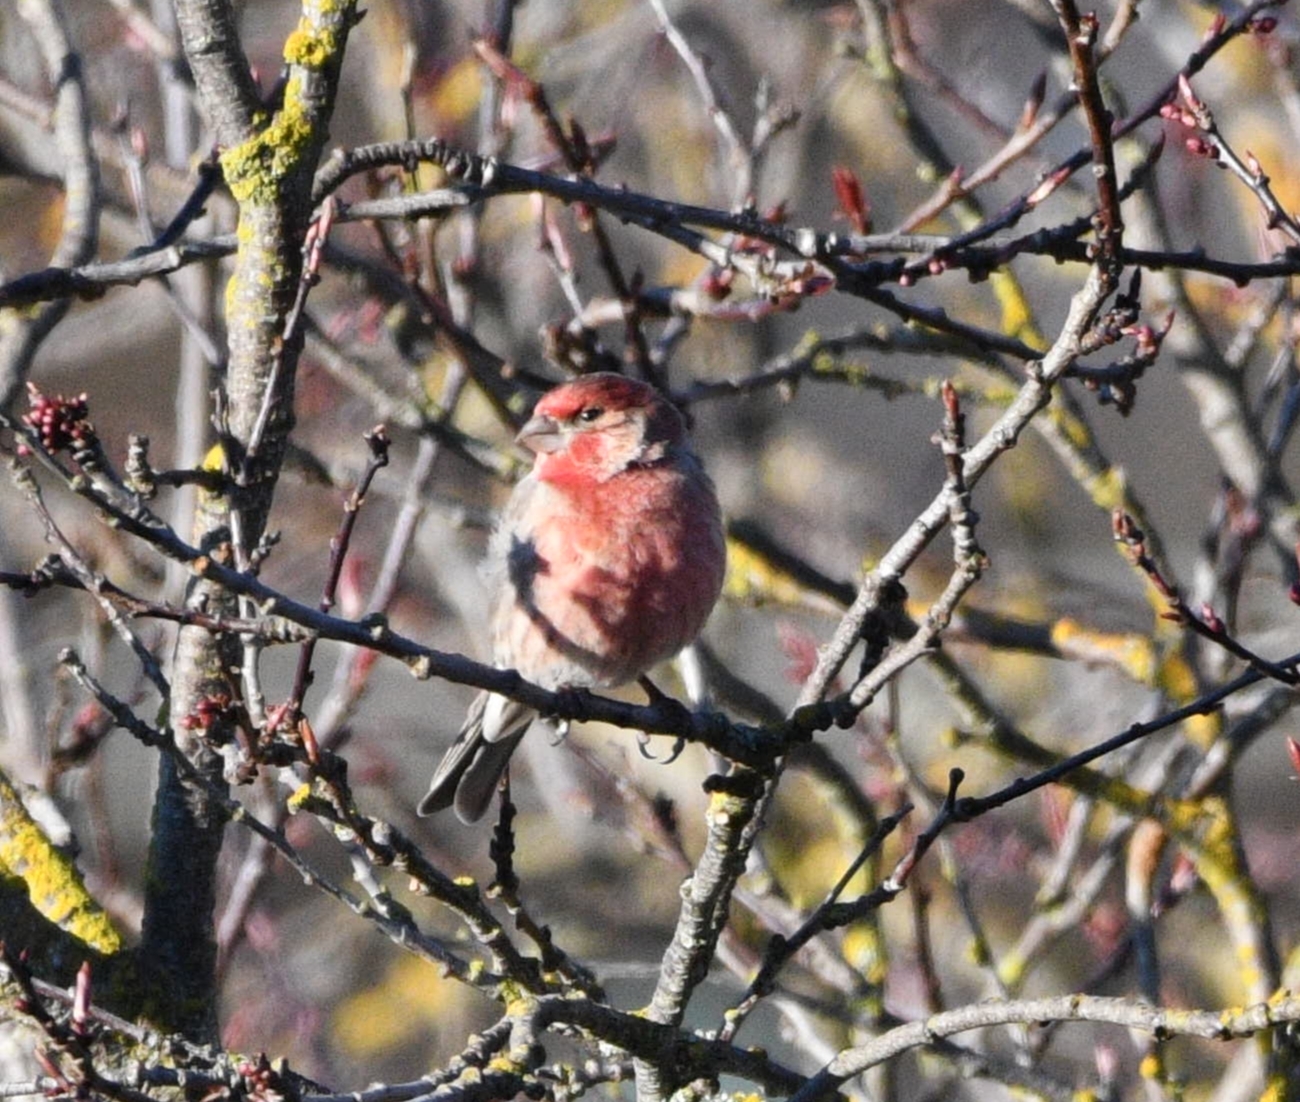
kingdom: Animalia
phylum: Chordata
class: Aves
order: Passeriformes
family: Fringillidae
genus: Haemorhous
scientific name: Haemorhous mexicanus
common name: House finch
